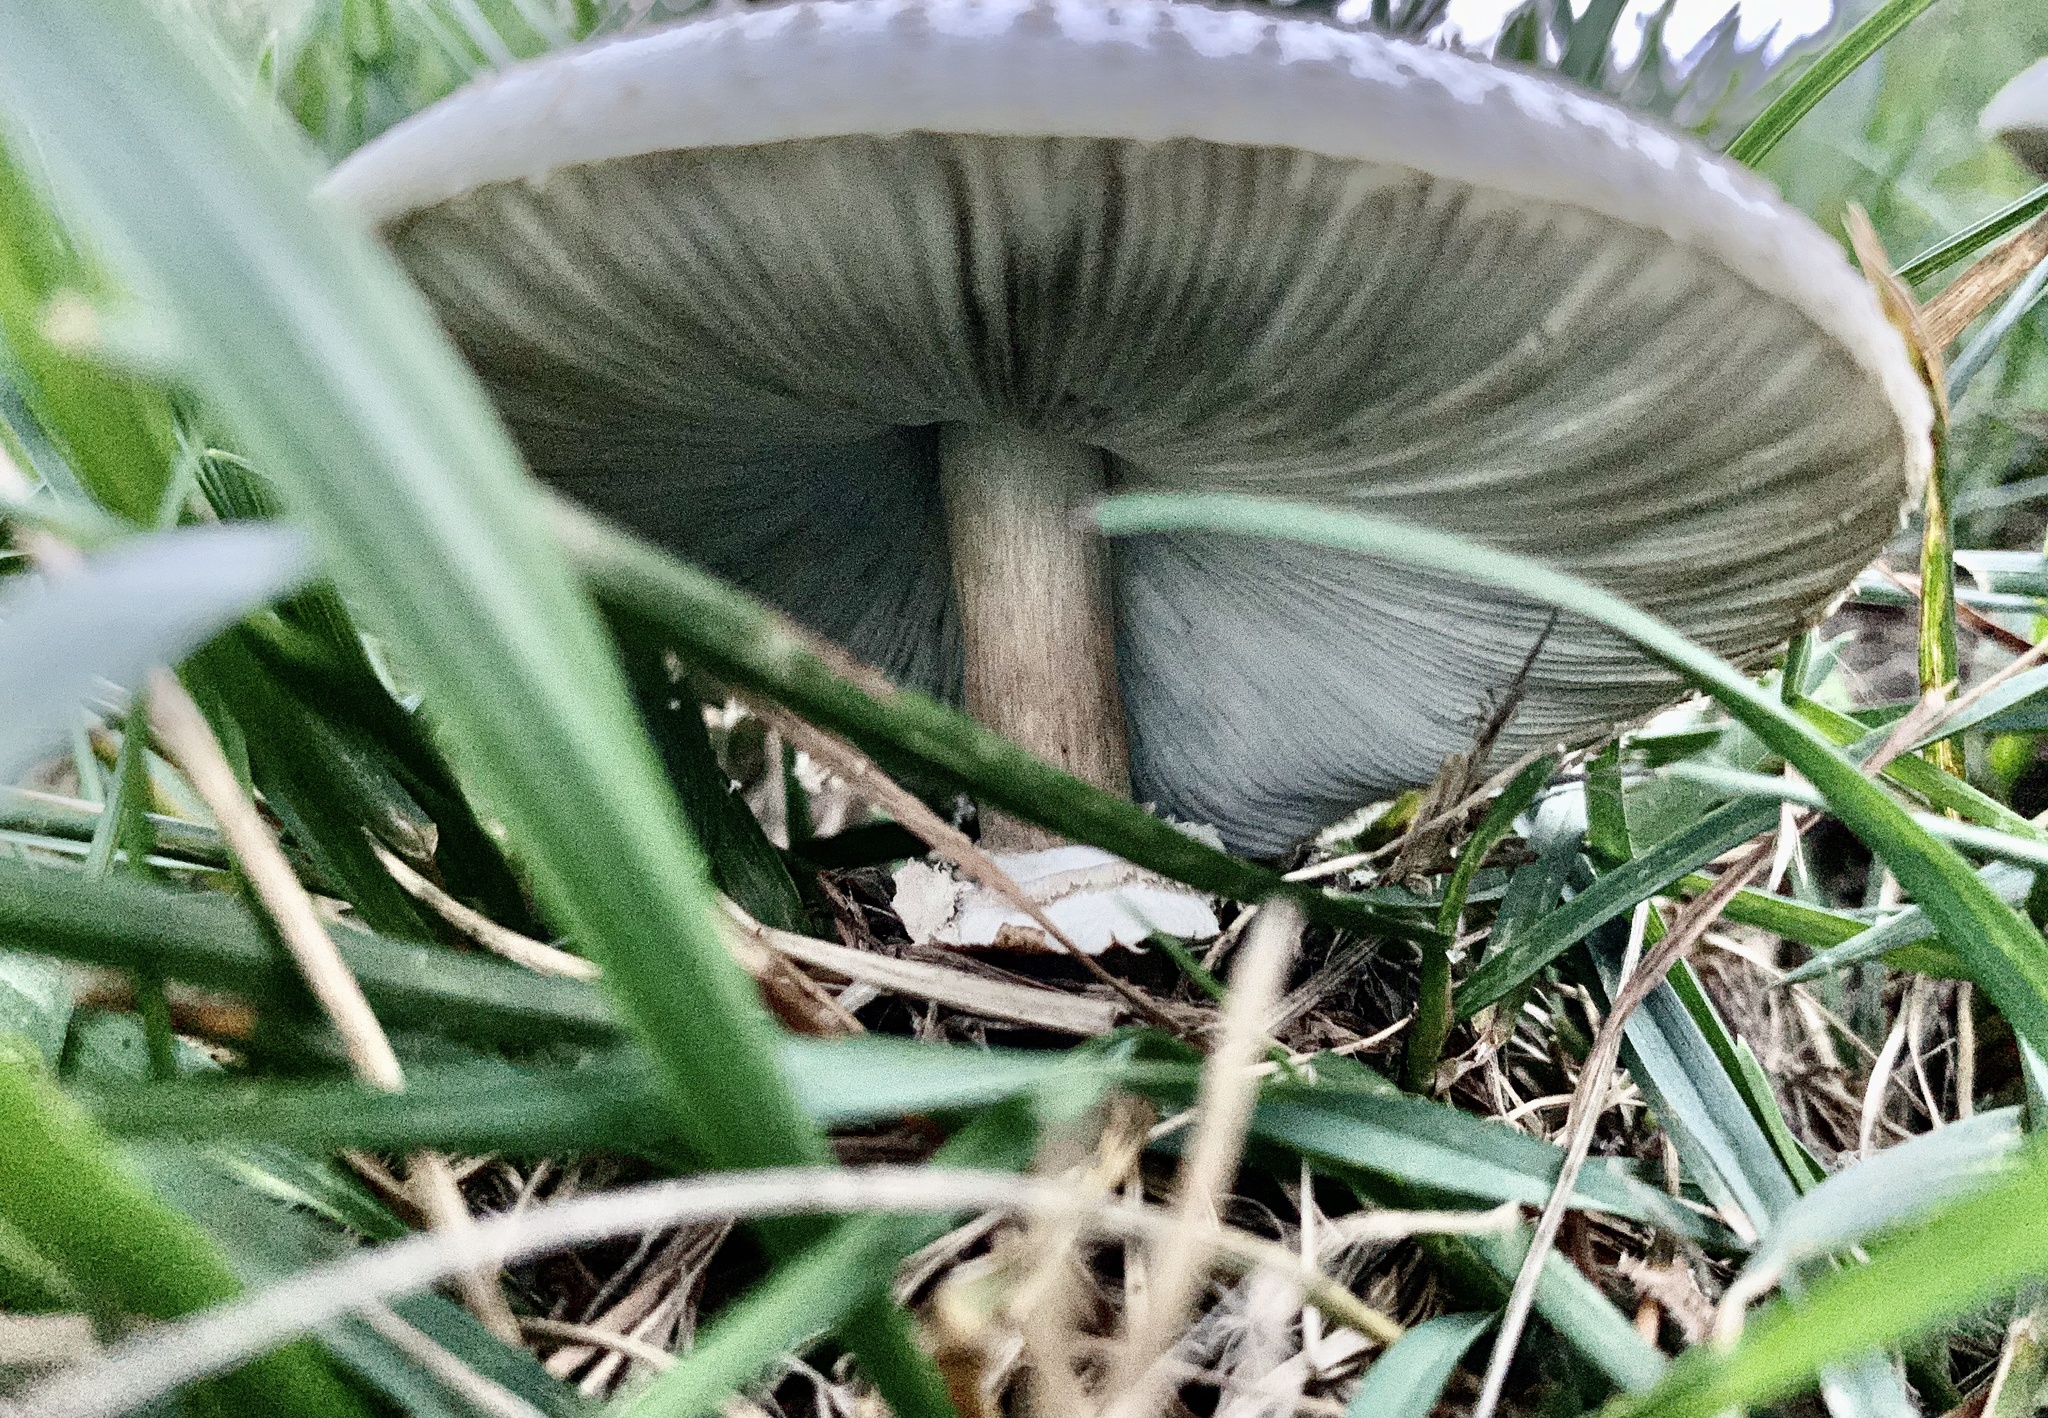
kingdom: Fungi
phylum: Basidiomycota
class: Agaricomycetes
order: Agaricales
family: Agaricaceae
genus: Chlorophyllum
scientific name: Chlorophyllum molybdites
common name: False parasol
